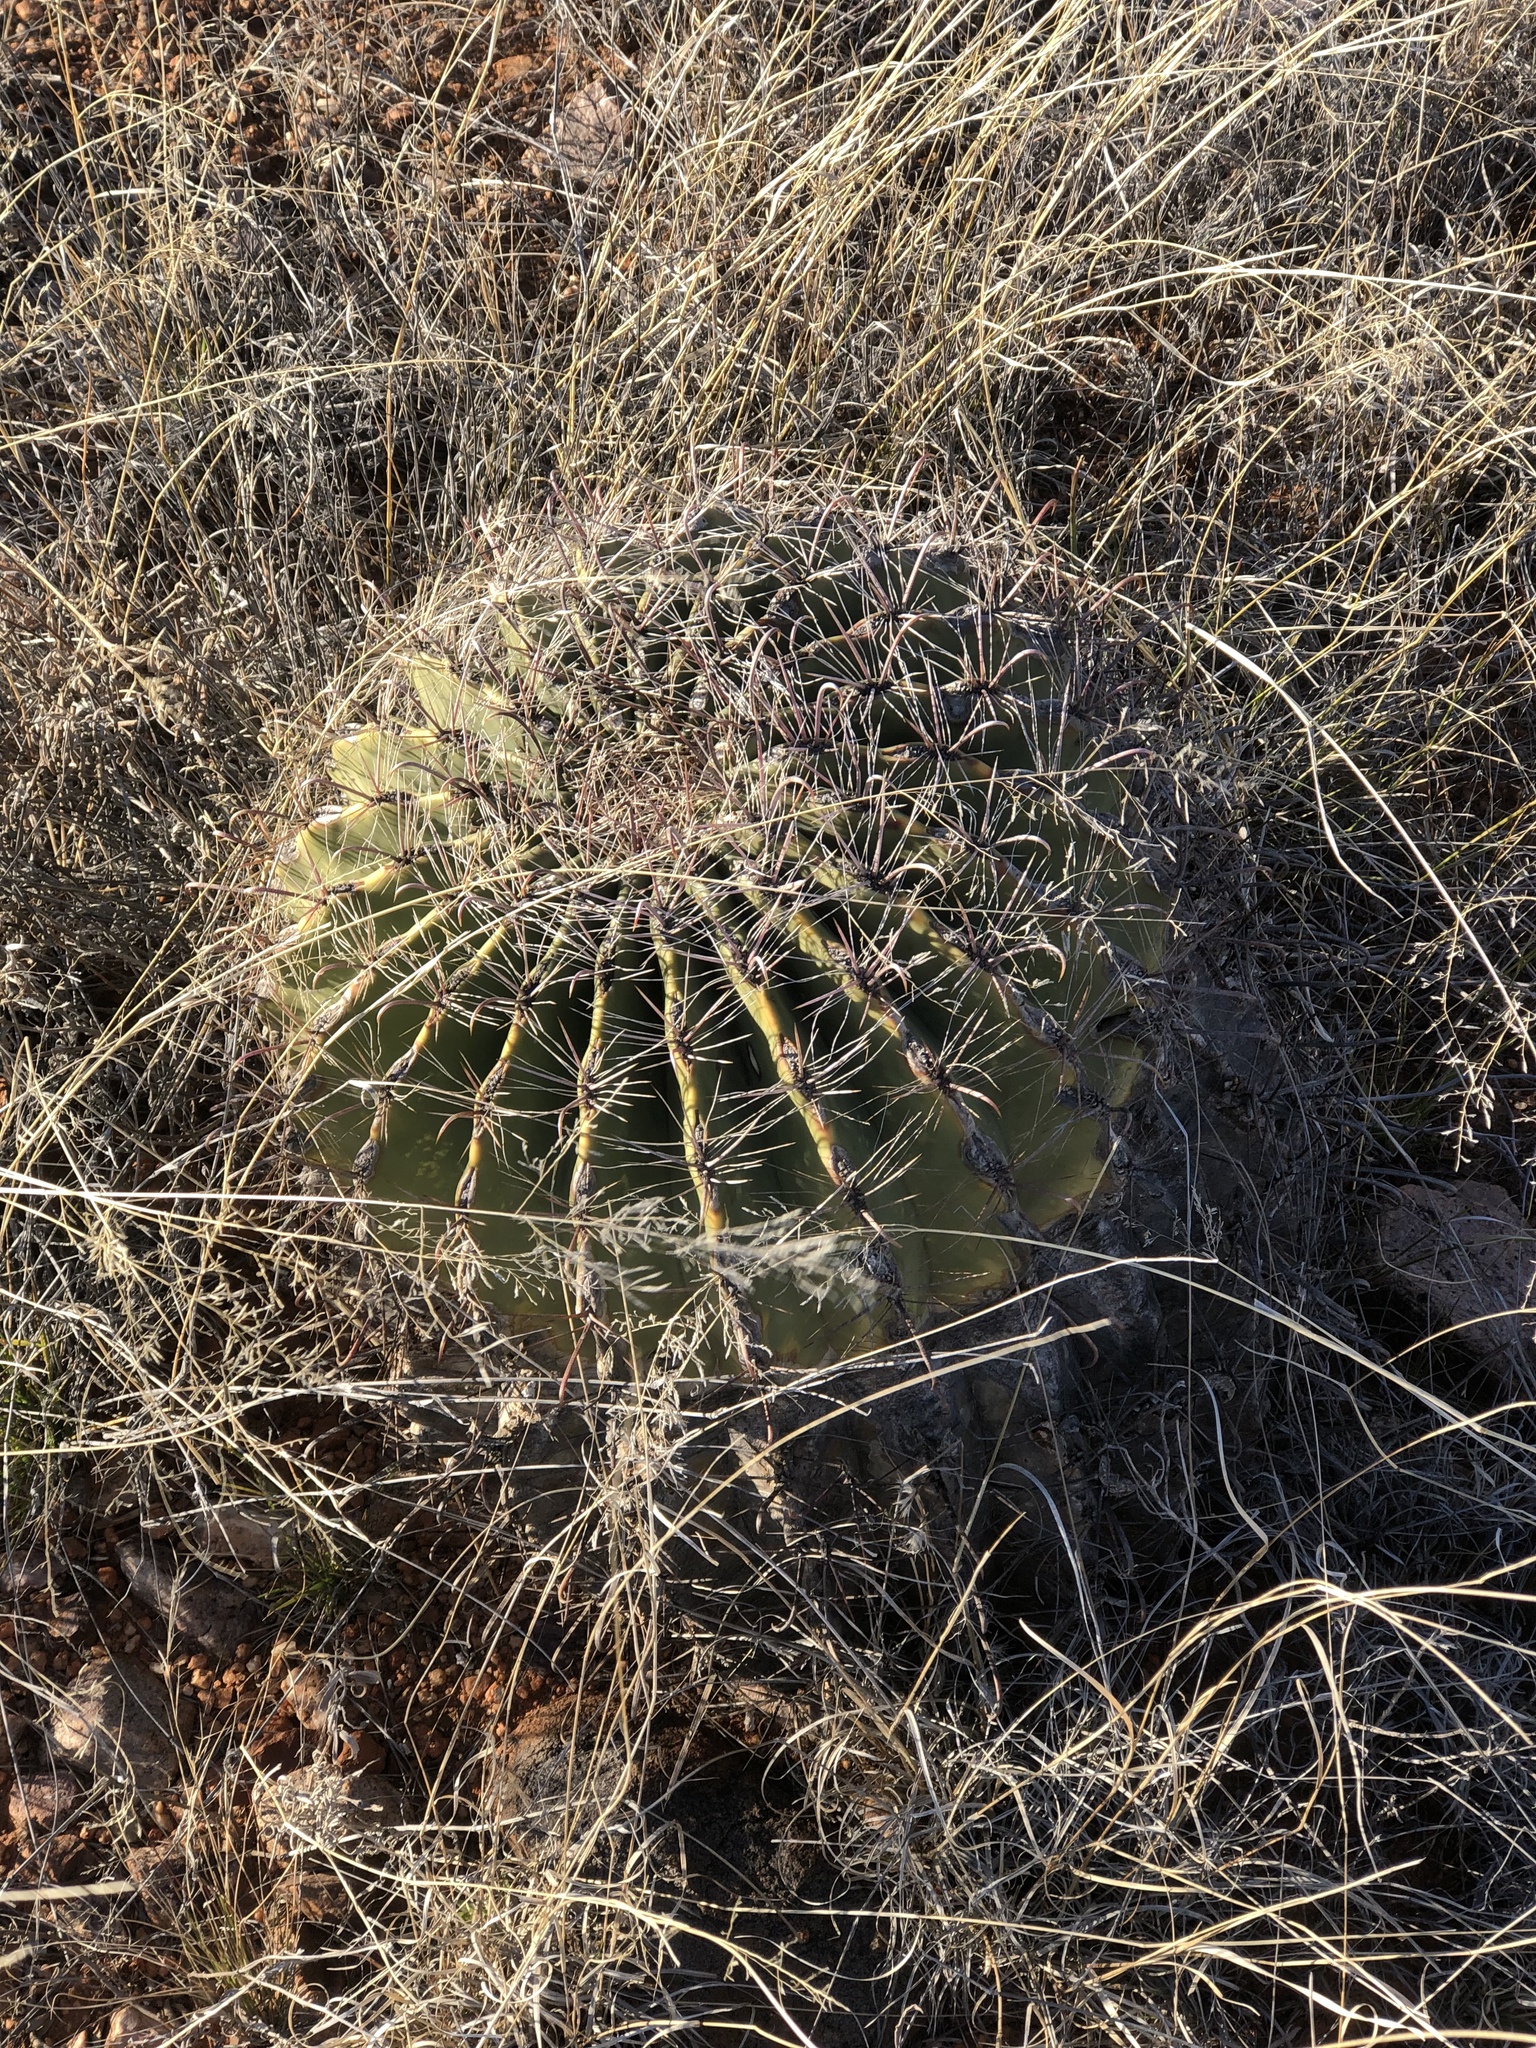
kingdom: Plantae
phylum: Tracheophyta
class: Magnoliopsida
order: Caryophyllales
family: Cactaceae
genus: Ferocactus
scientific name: Ferocactus wislizeni
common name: Candy barrel cactus
